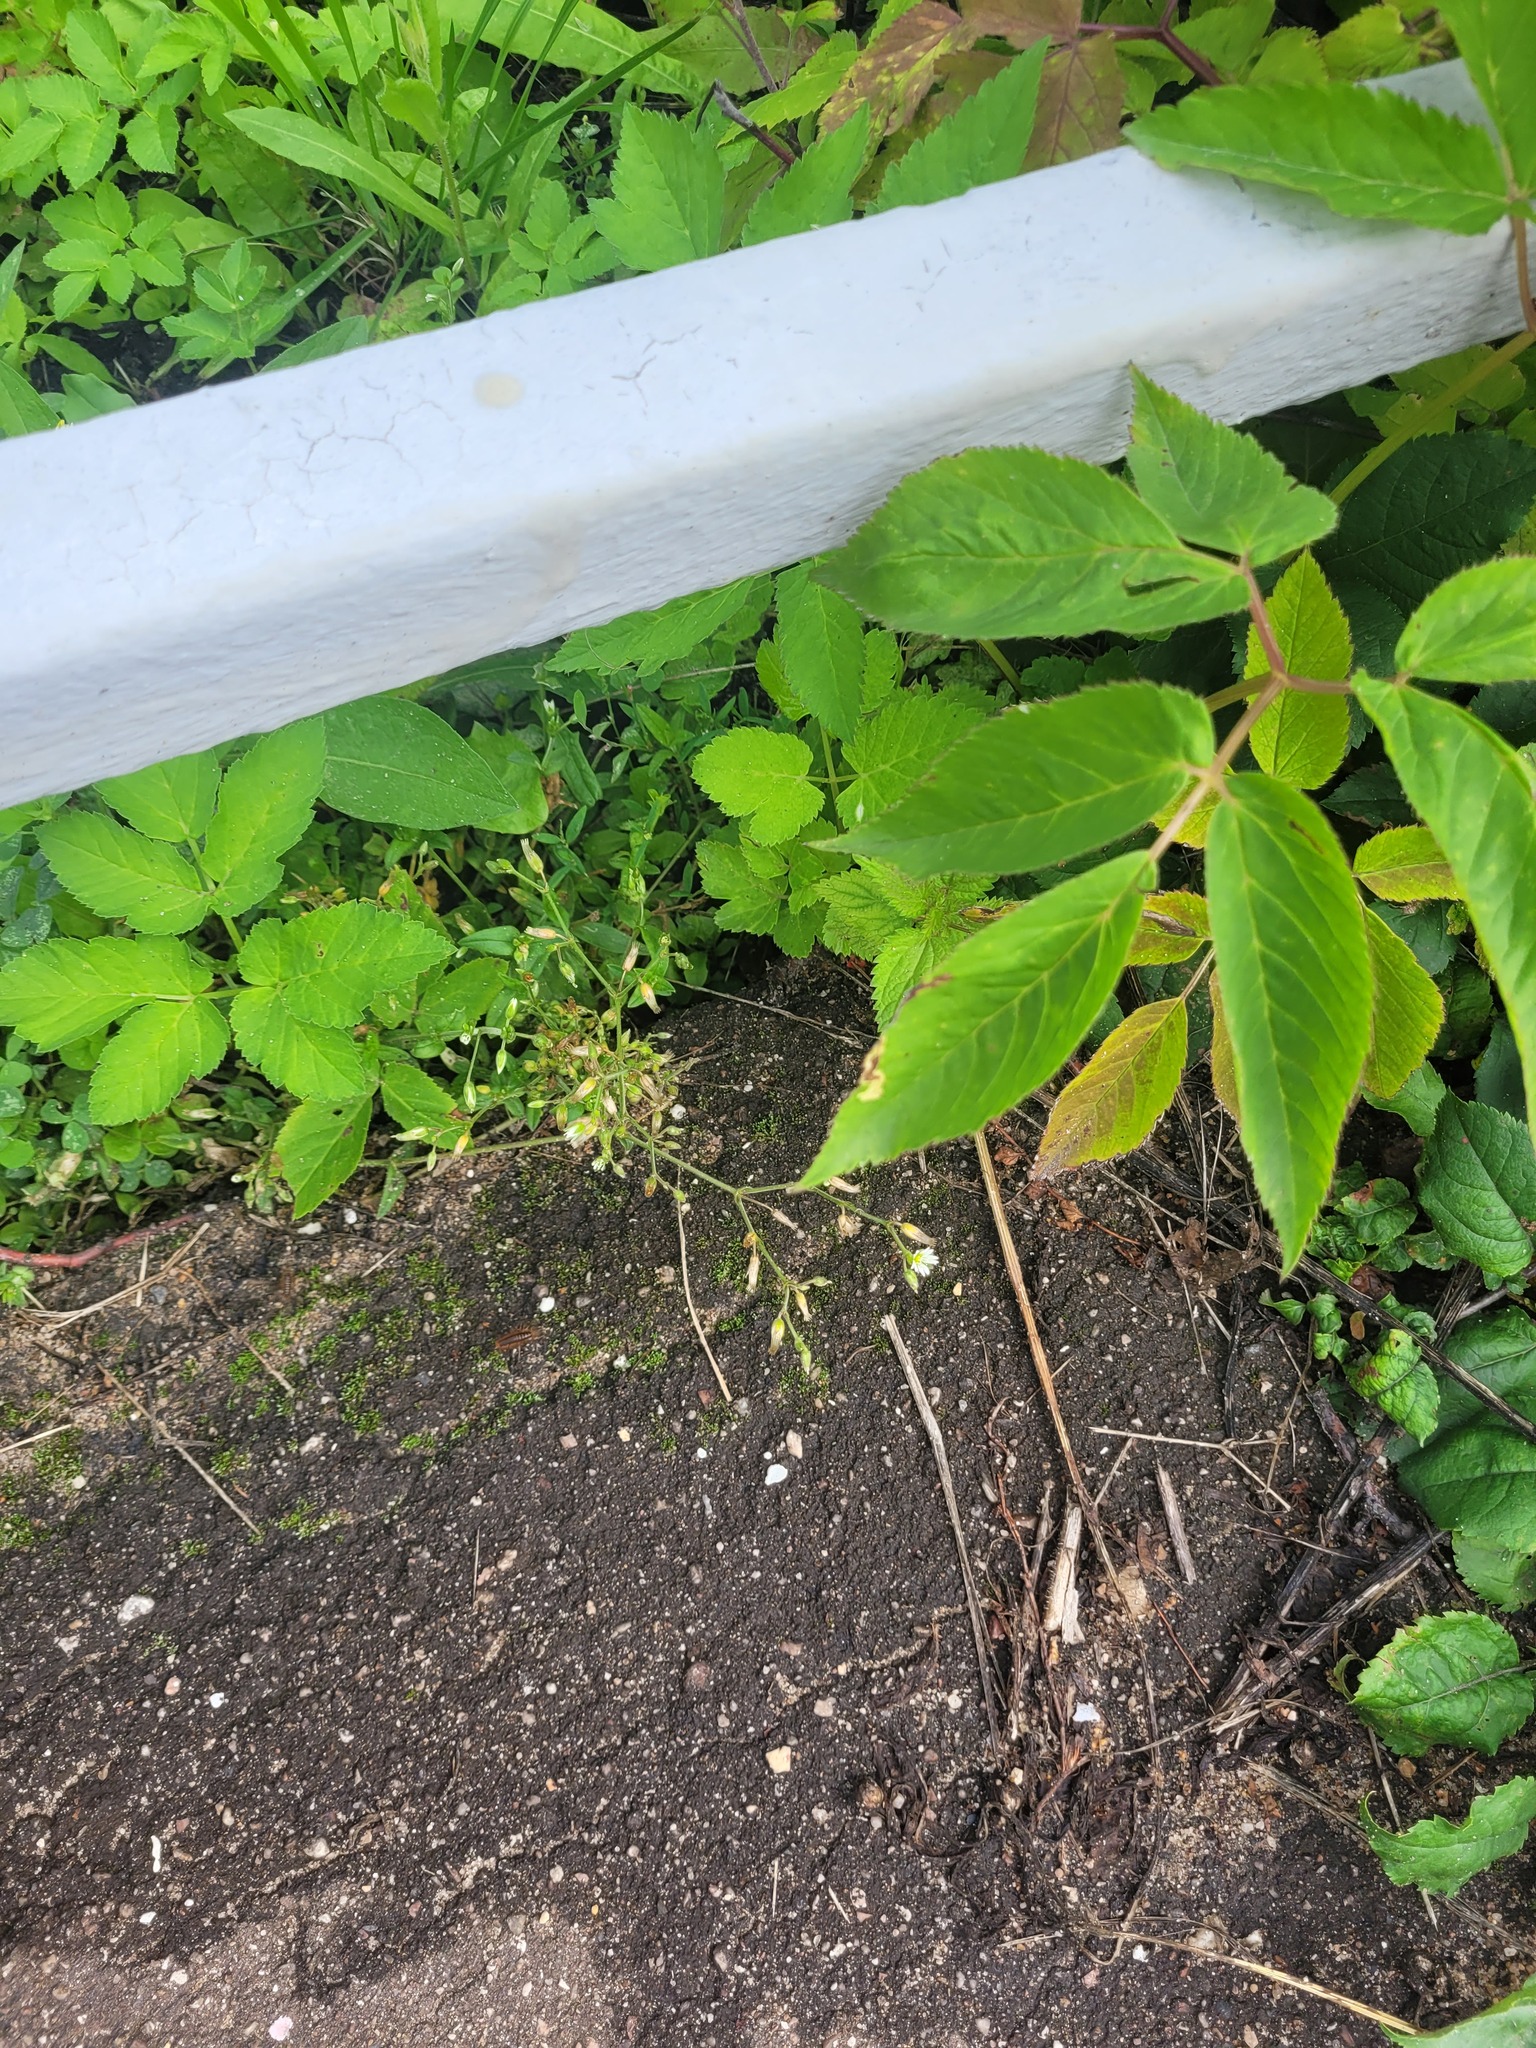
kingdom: Plantae
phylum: Tracheophyta
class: Magnoliopsida
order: Caryophyllales
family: Caryophyllaceae
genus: Cerastium
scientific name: Cerastium holosteoides
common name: Big chickweed
